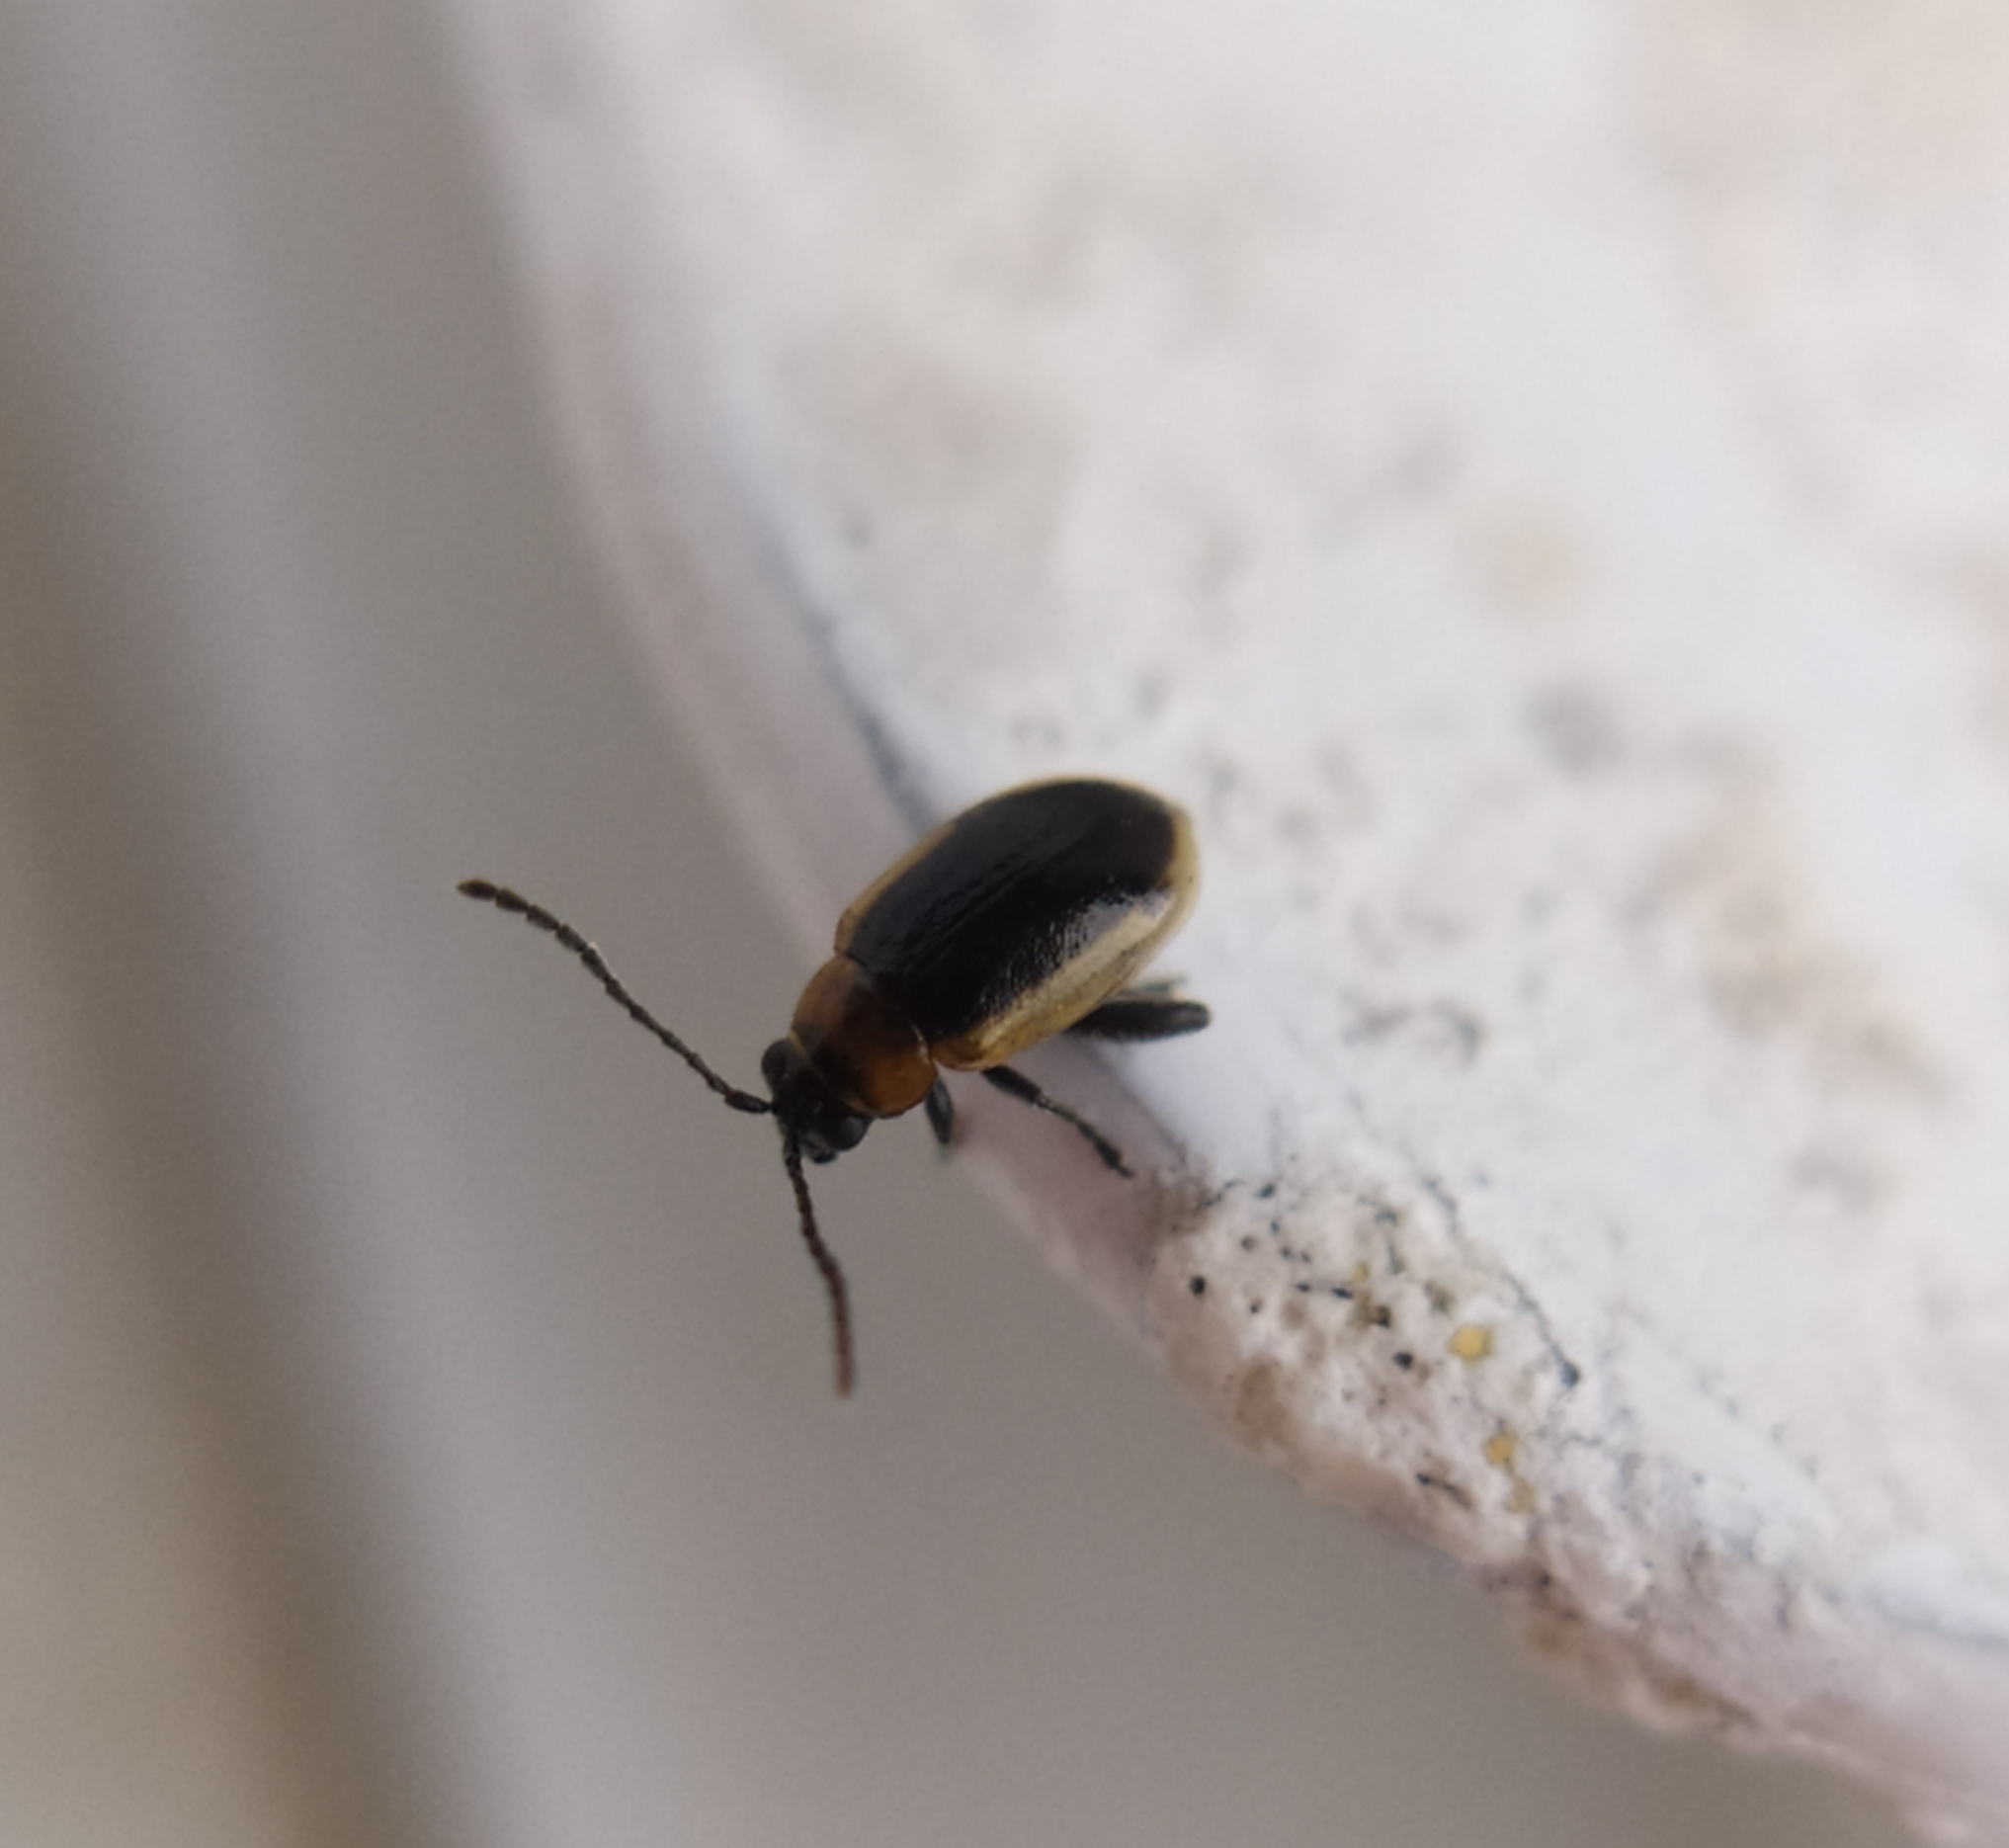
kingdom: Animalia
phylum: Arthropoda
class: Insecta
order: Coleoptera
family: Chrysomelidae
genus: Longitarsus
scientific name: Longitarsus dorsalis
